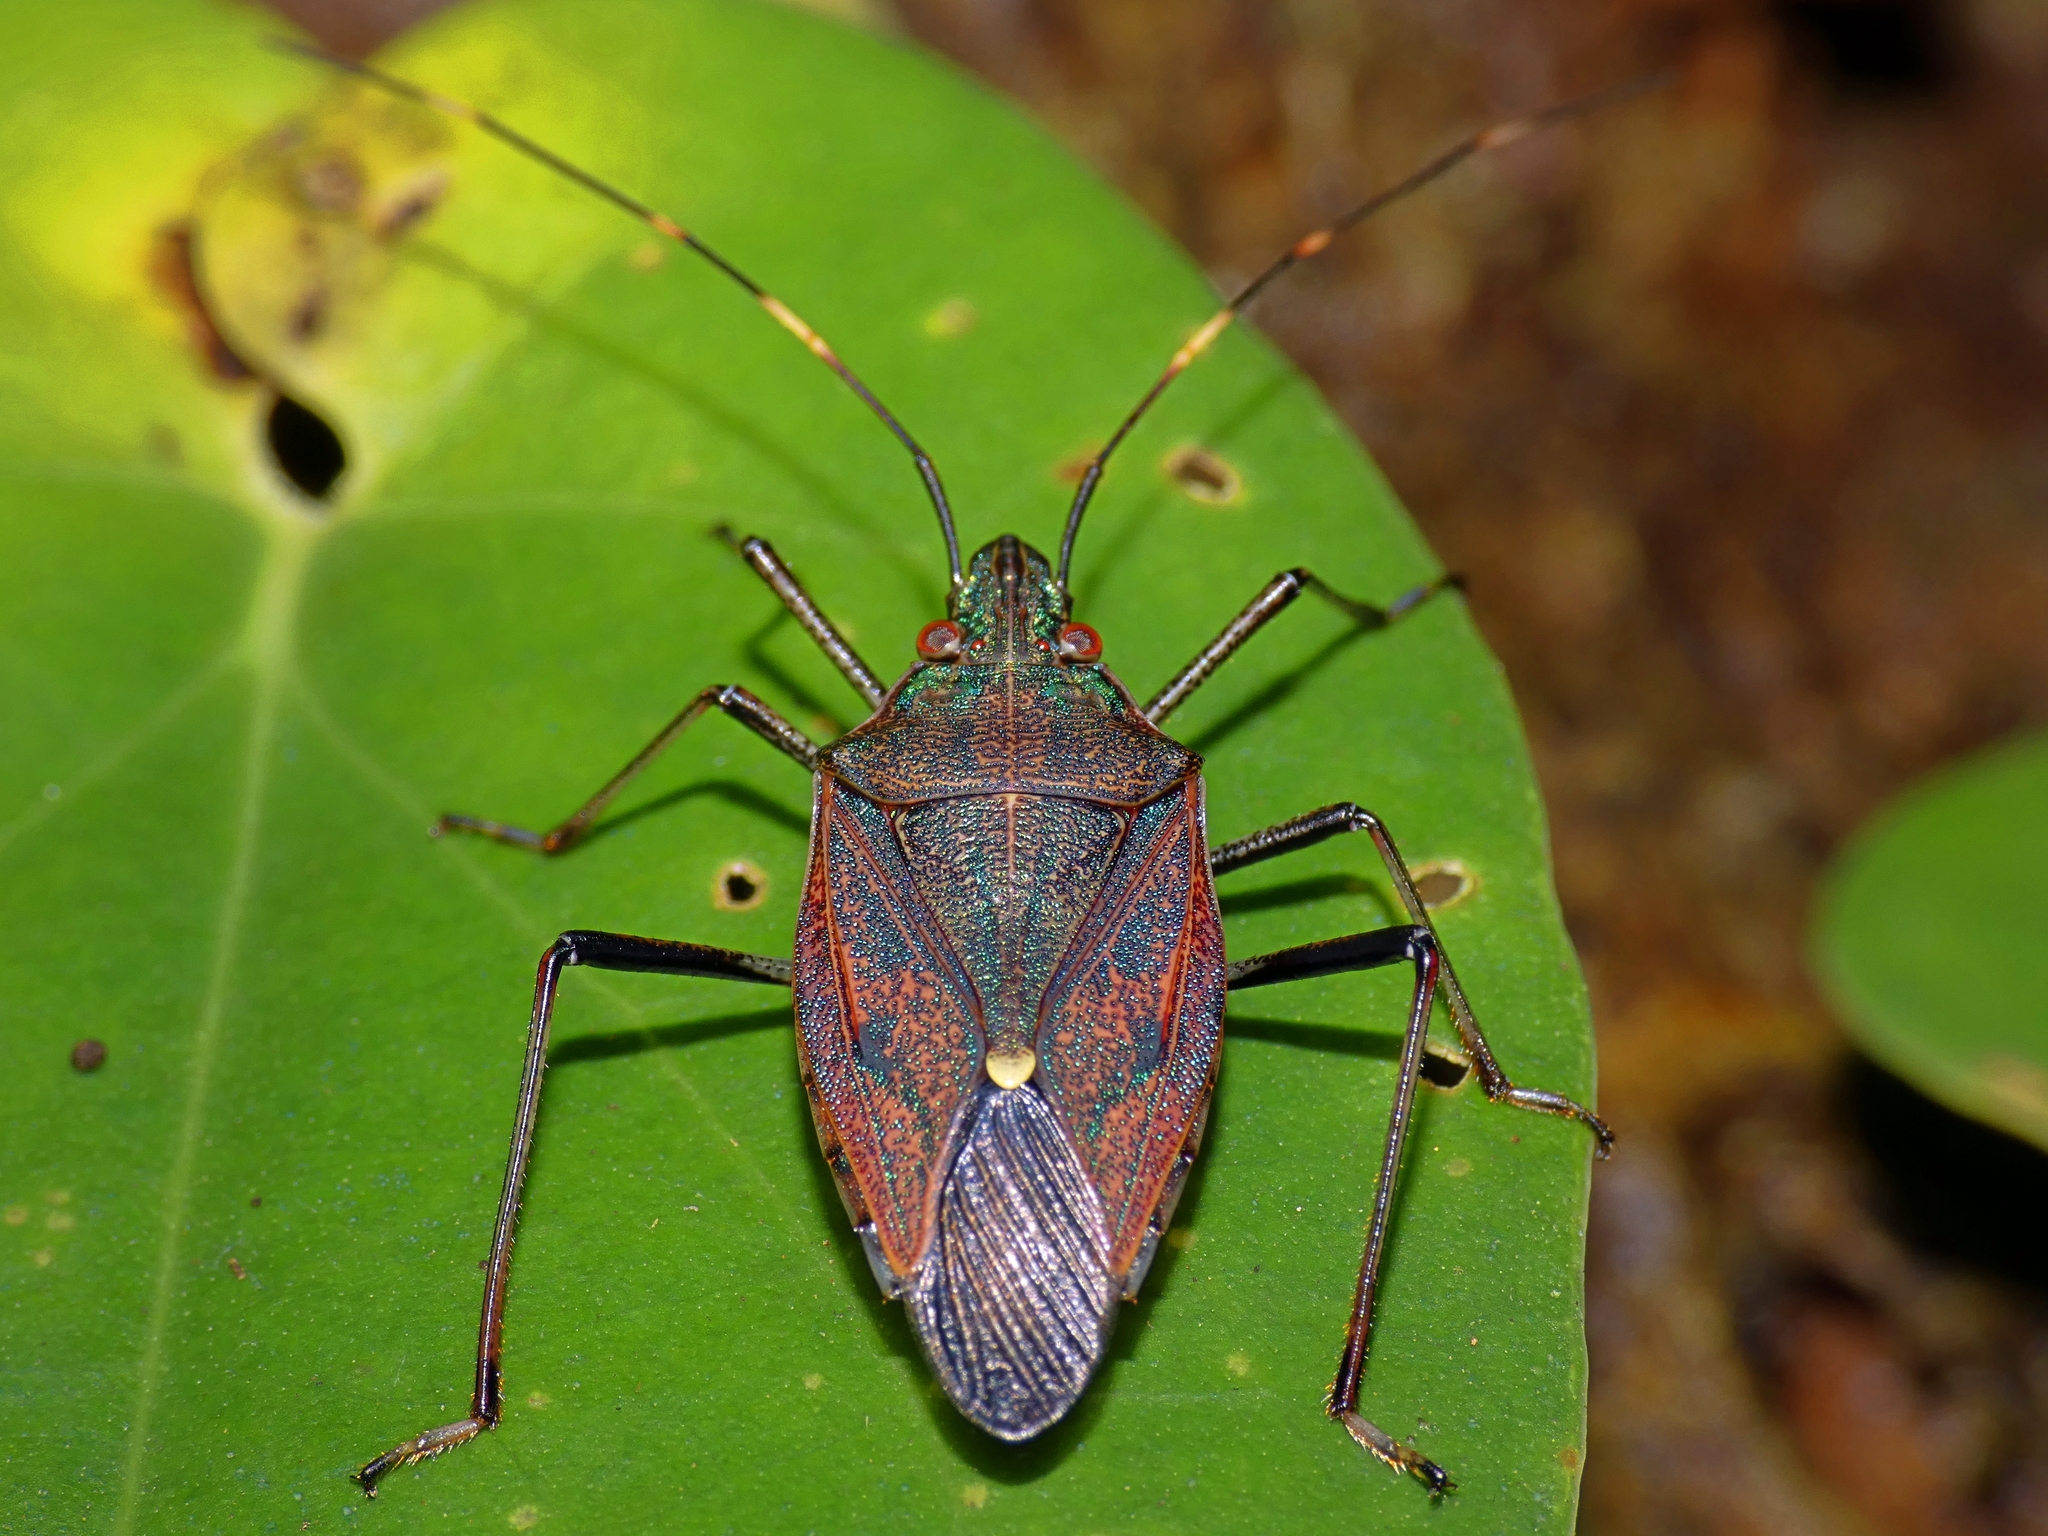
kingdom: Animalia
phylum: Arthropoda
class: Insecta
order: Hemiptera
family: Pentatomidae
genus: Poecilometis
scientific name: Poecilometis
